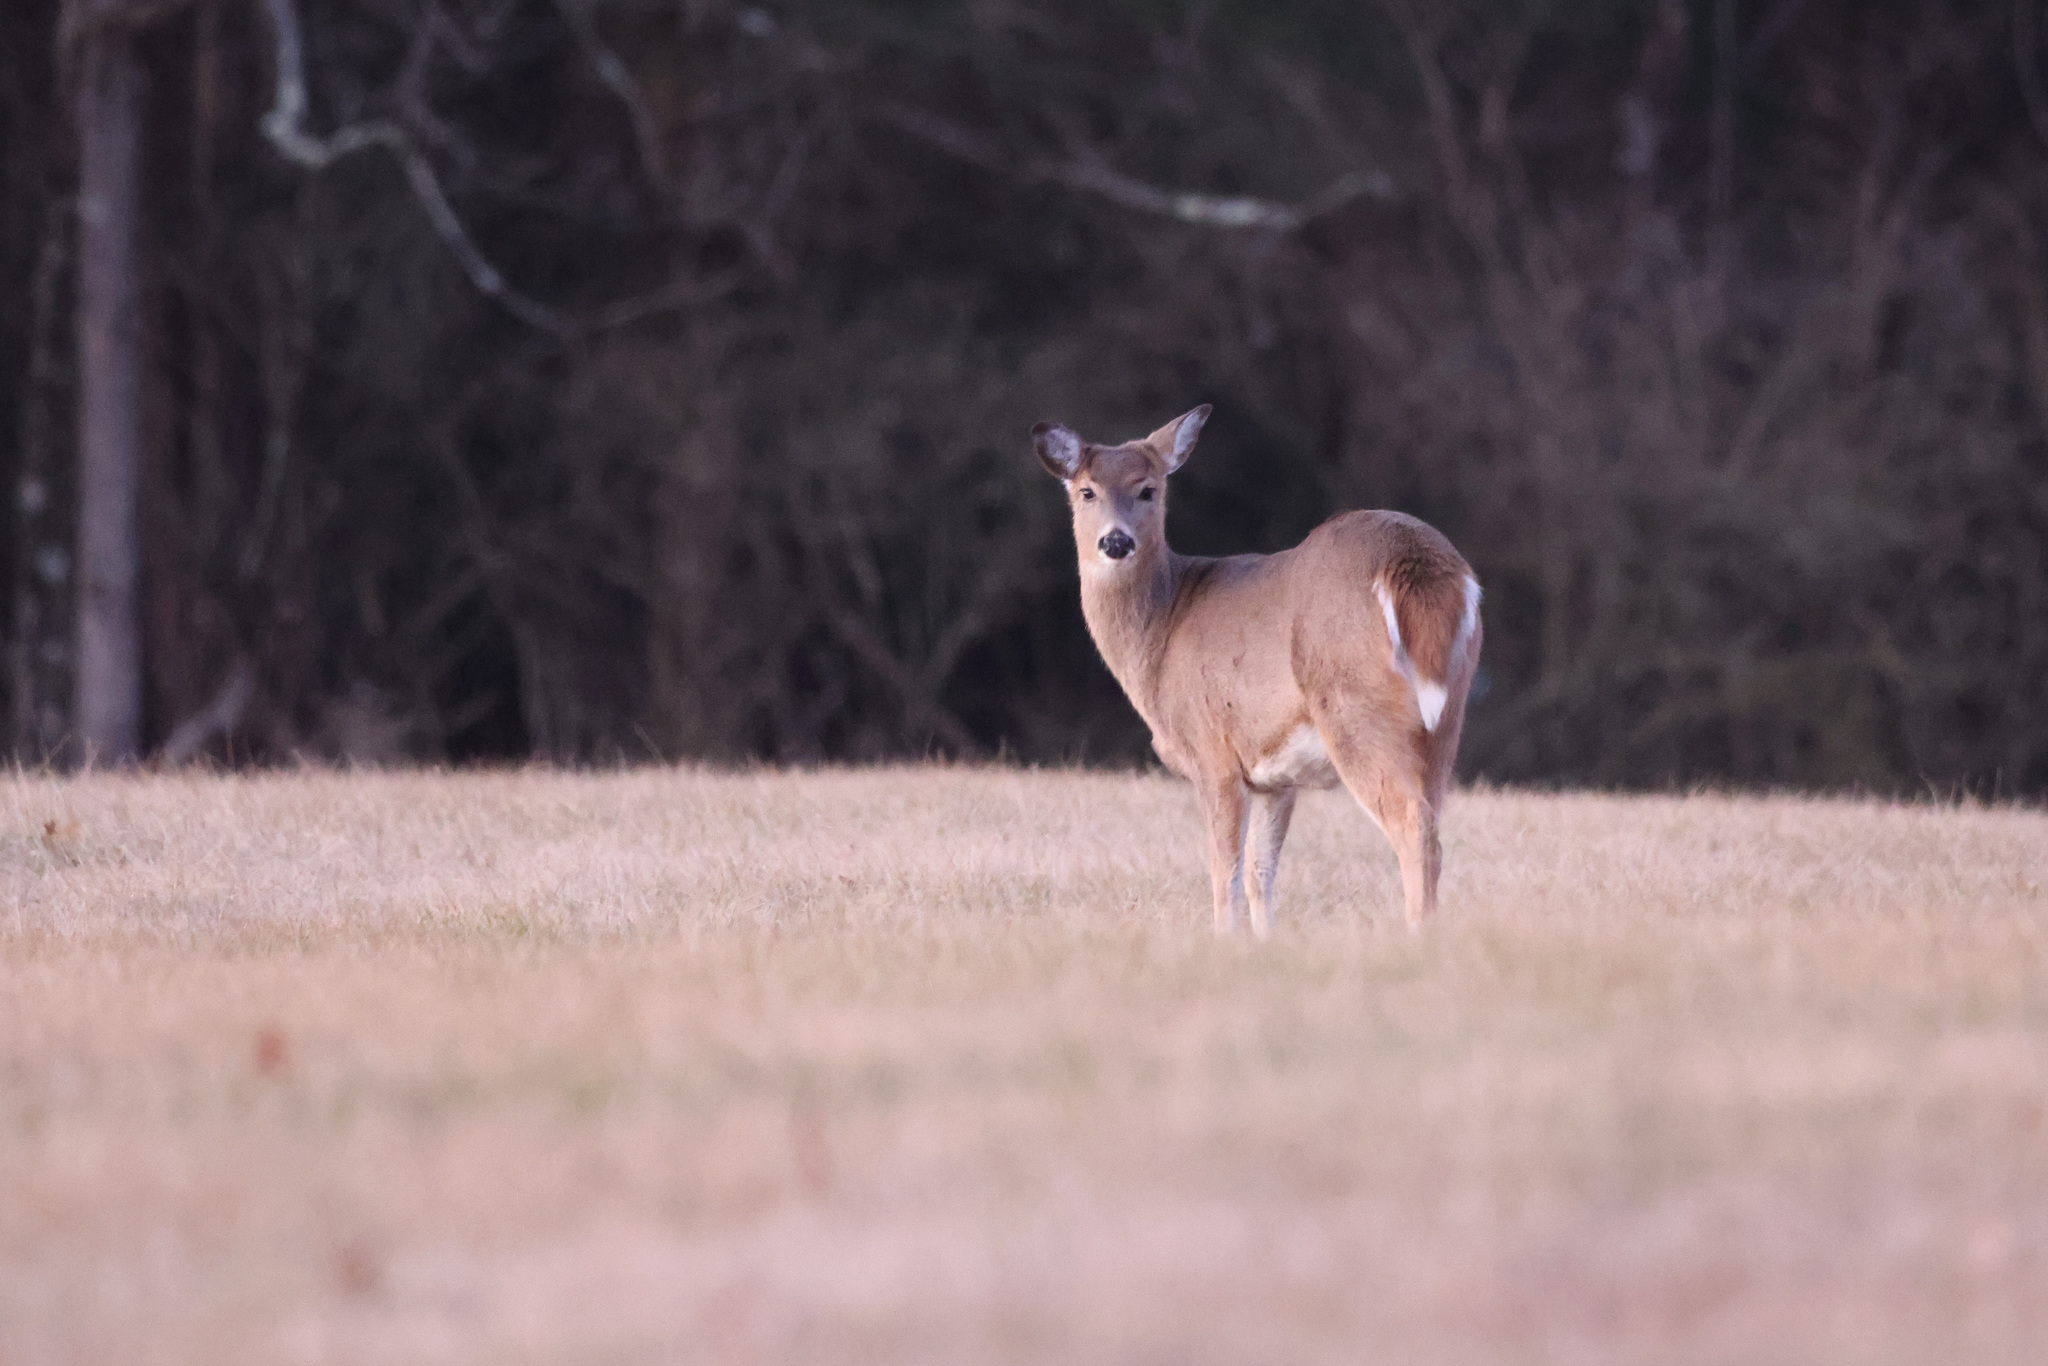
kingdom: Animalia
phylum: Chordata
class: Mammalia
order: Artiodactyla
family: Cervidae
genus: Odocoileus
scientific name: Odocoileus virginianus
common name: White-tailed deer
